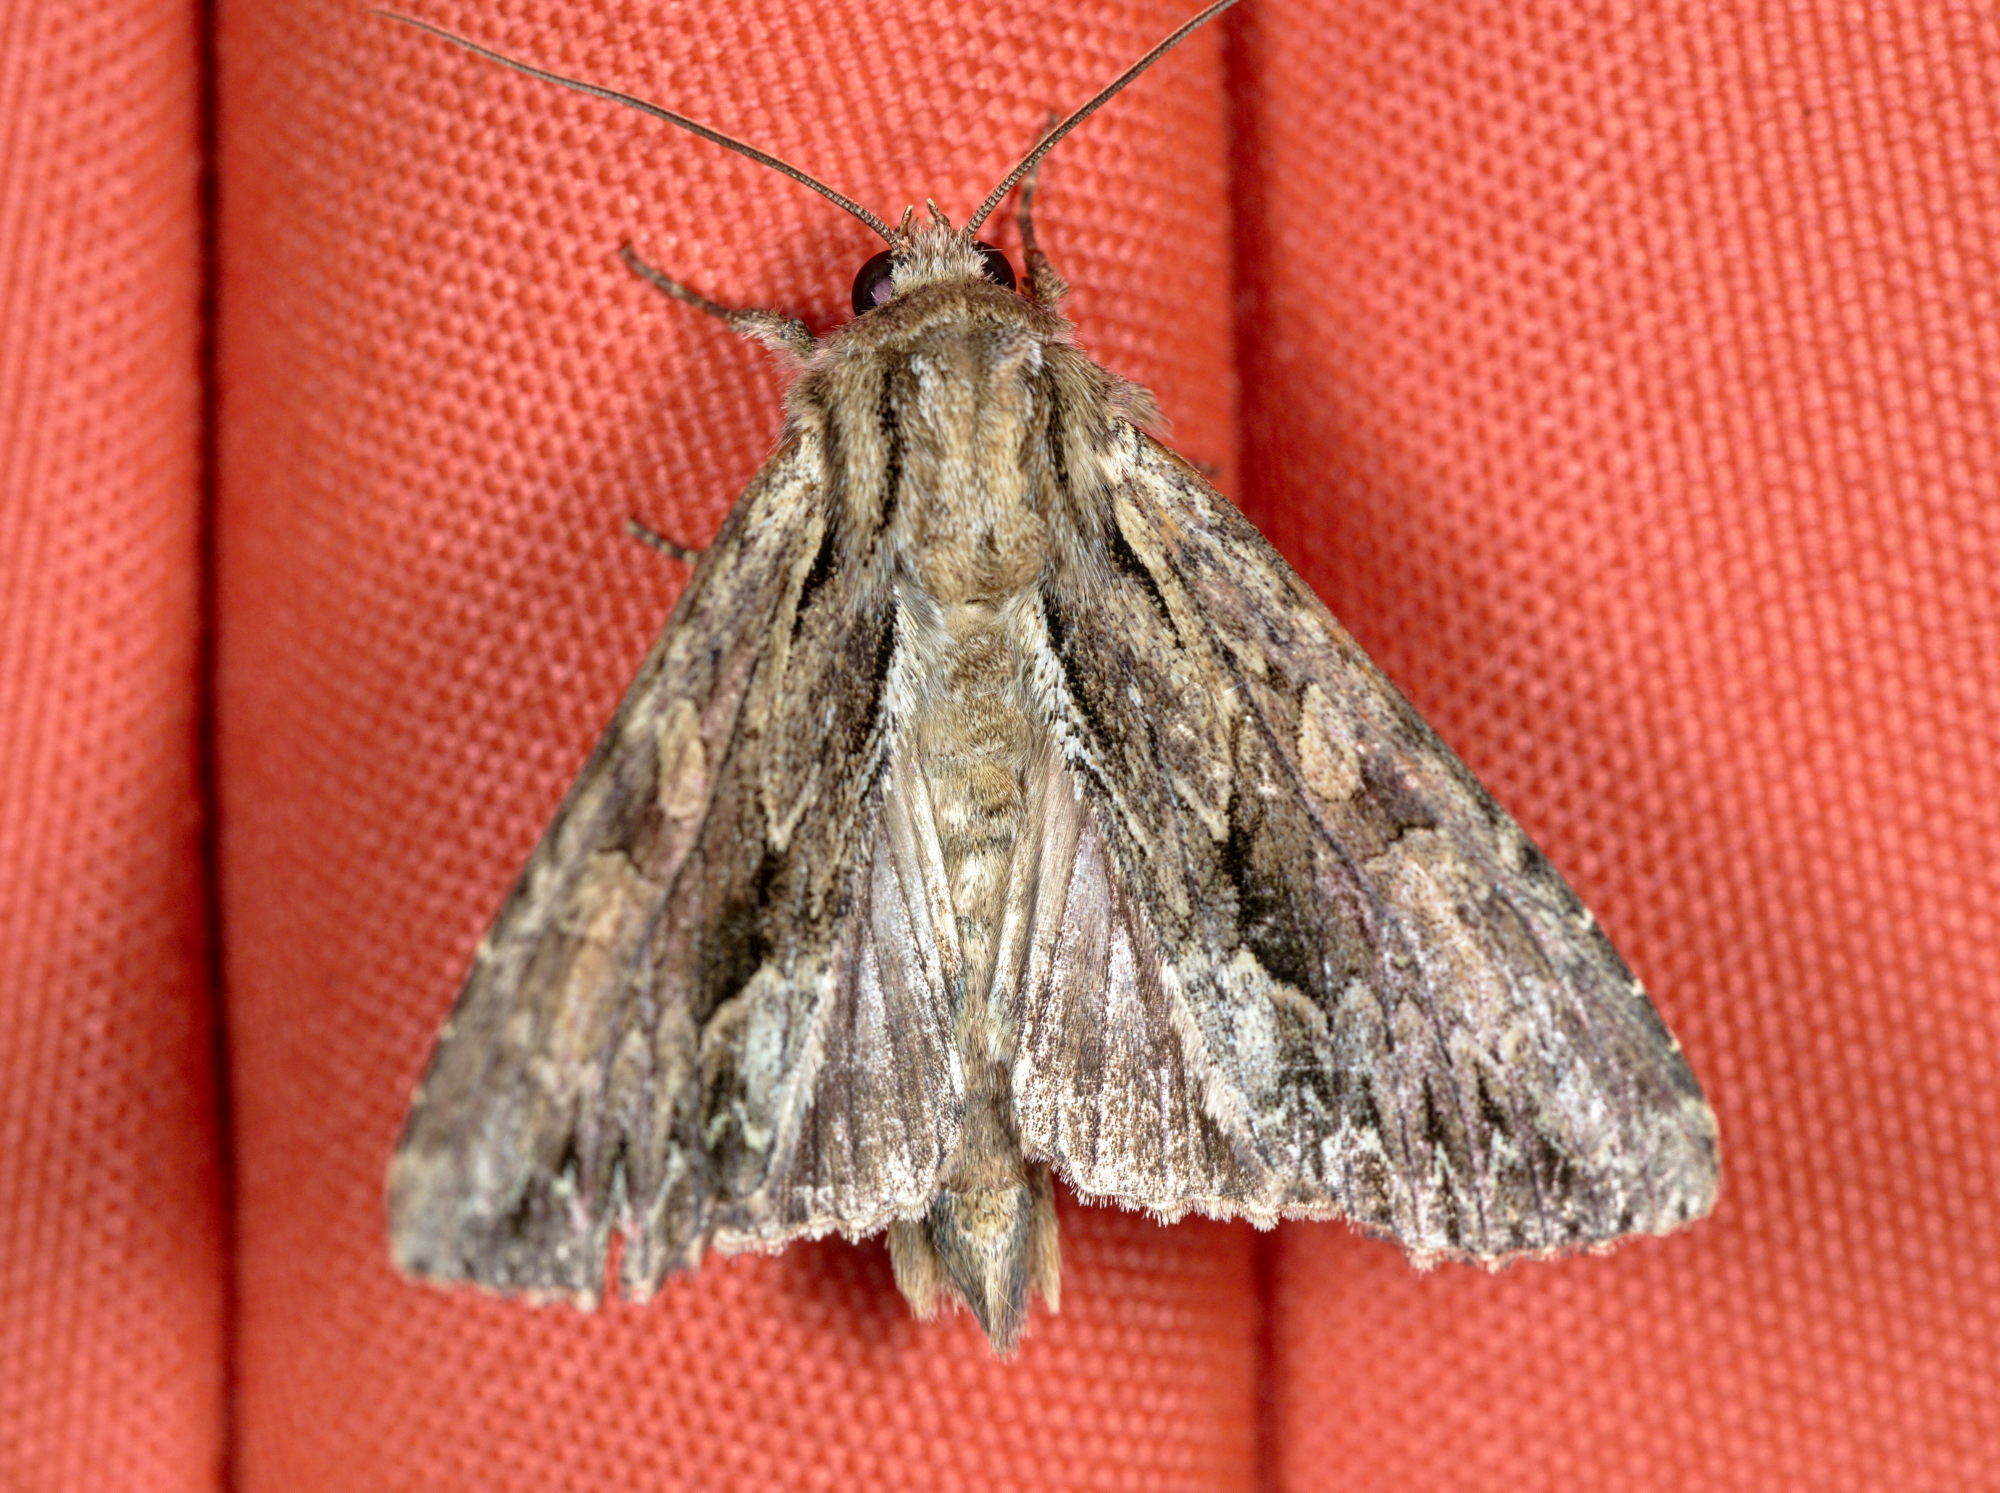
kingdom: Animalia
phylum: Arthropoda
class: Insecta
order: Lepidoptera
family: Noctuidae
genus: Apamea
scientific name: Apamea monoglypha
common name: Dark arches
